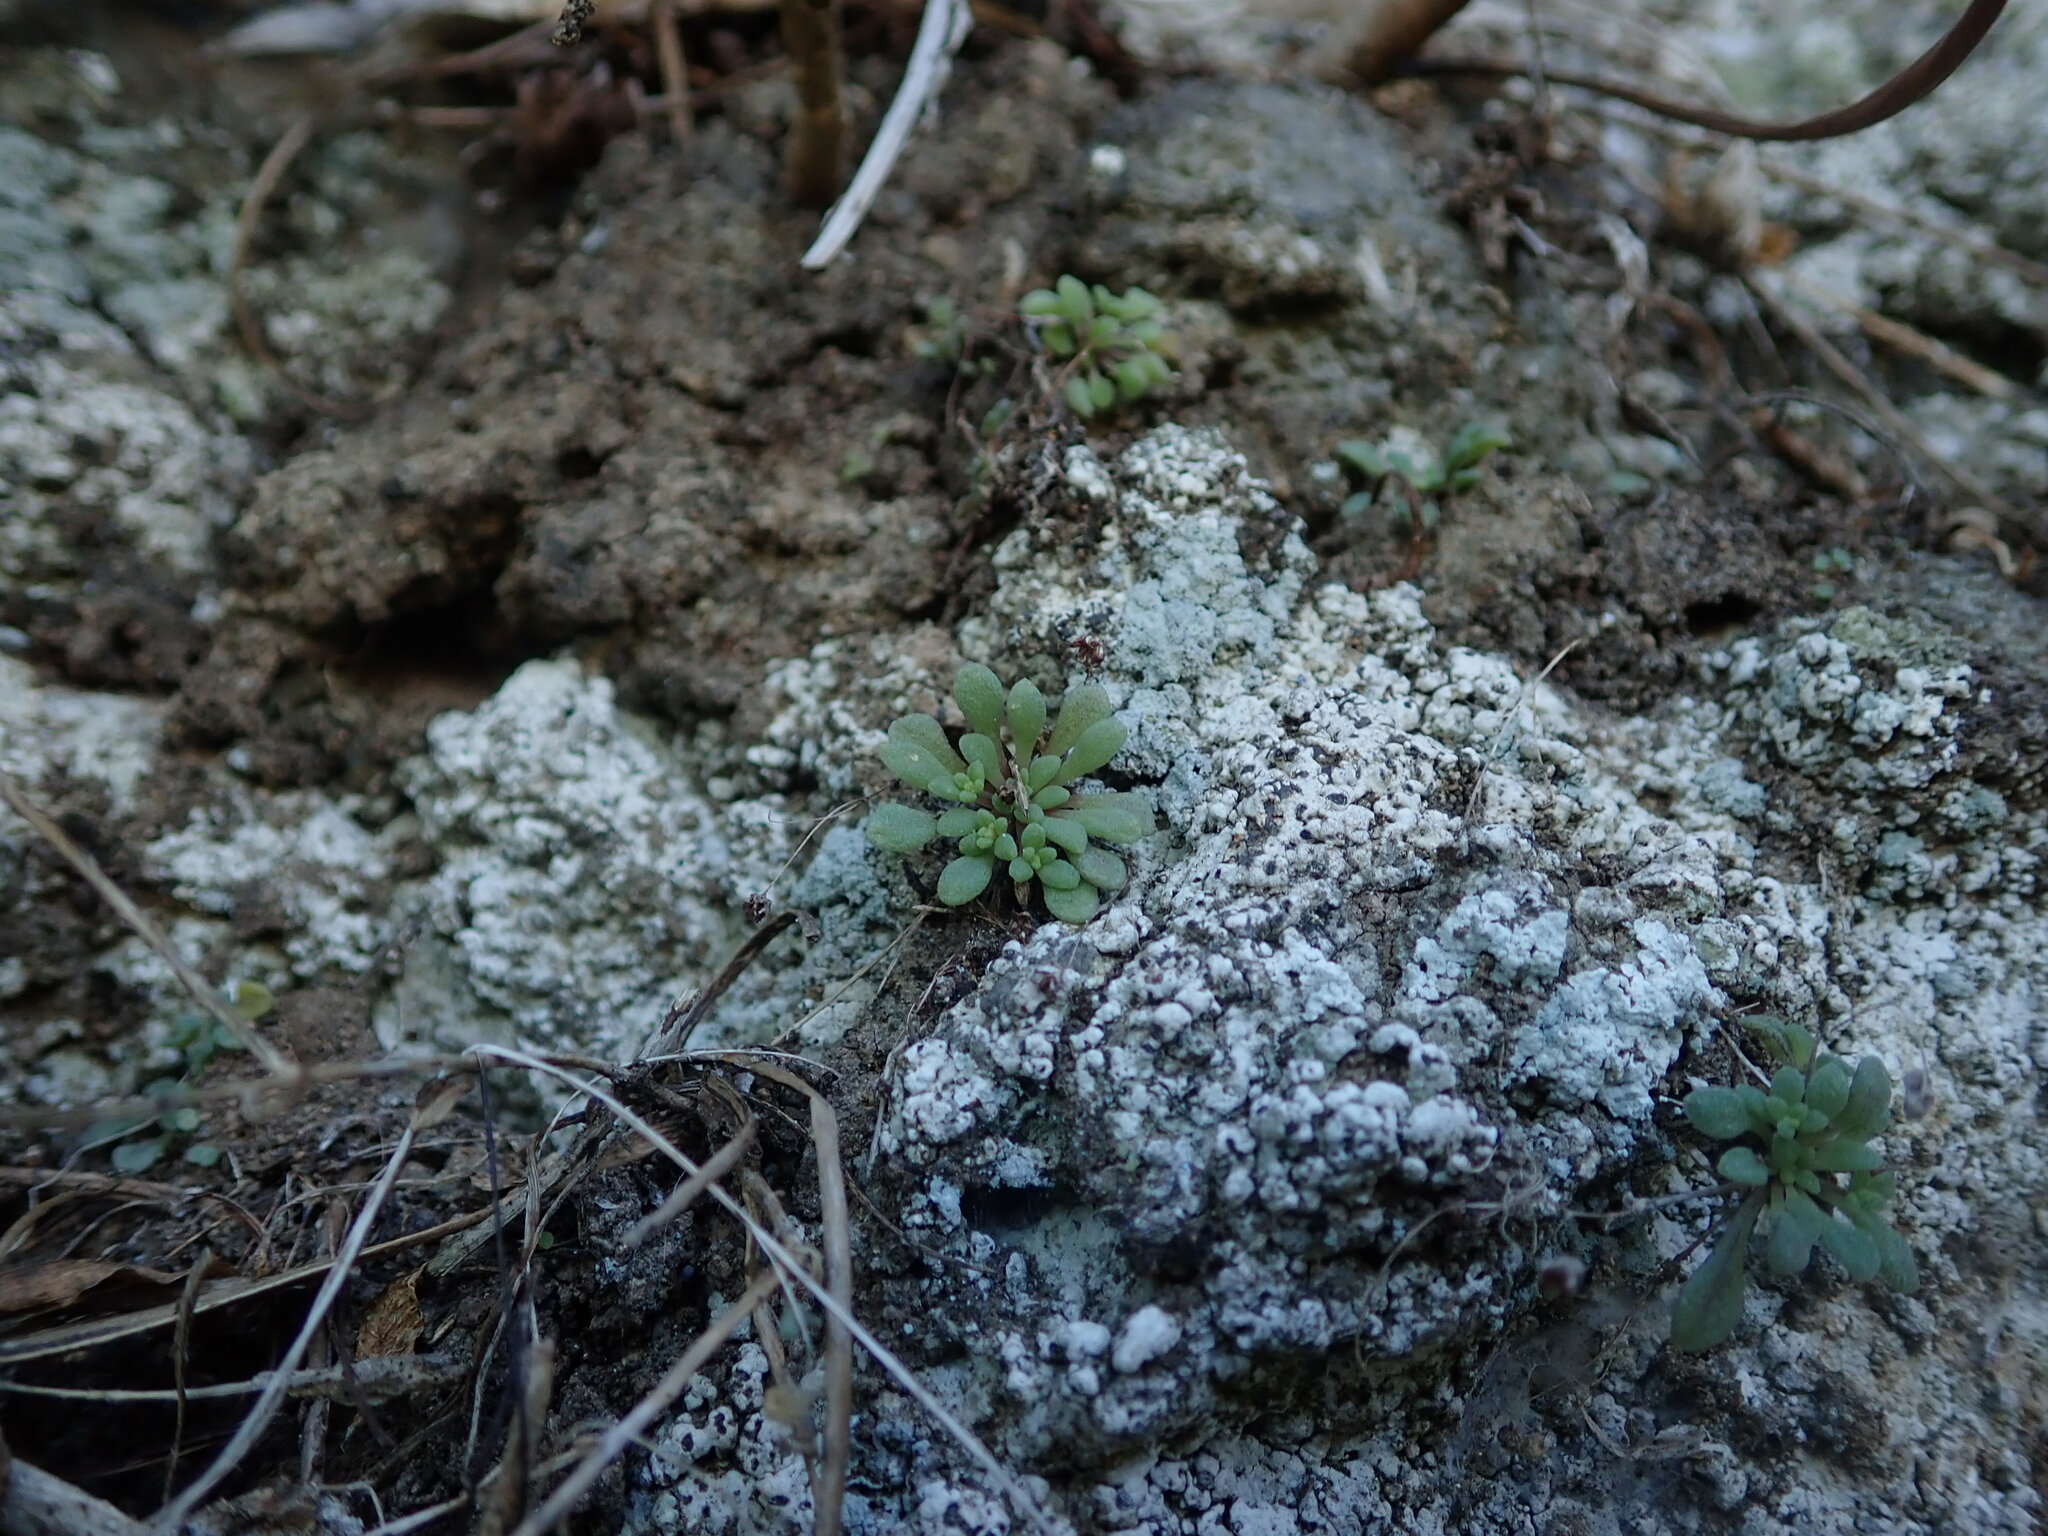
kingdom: Plantae
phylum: Tracheophyta
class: Magnoliopsida
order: Saxifragales
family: Crassulaceae
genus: Monanthes
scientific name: Monanthes brachycaulos
